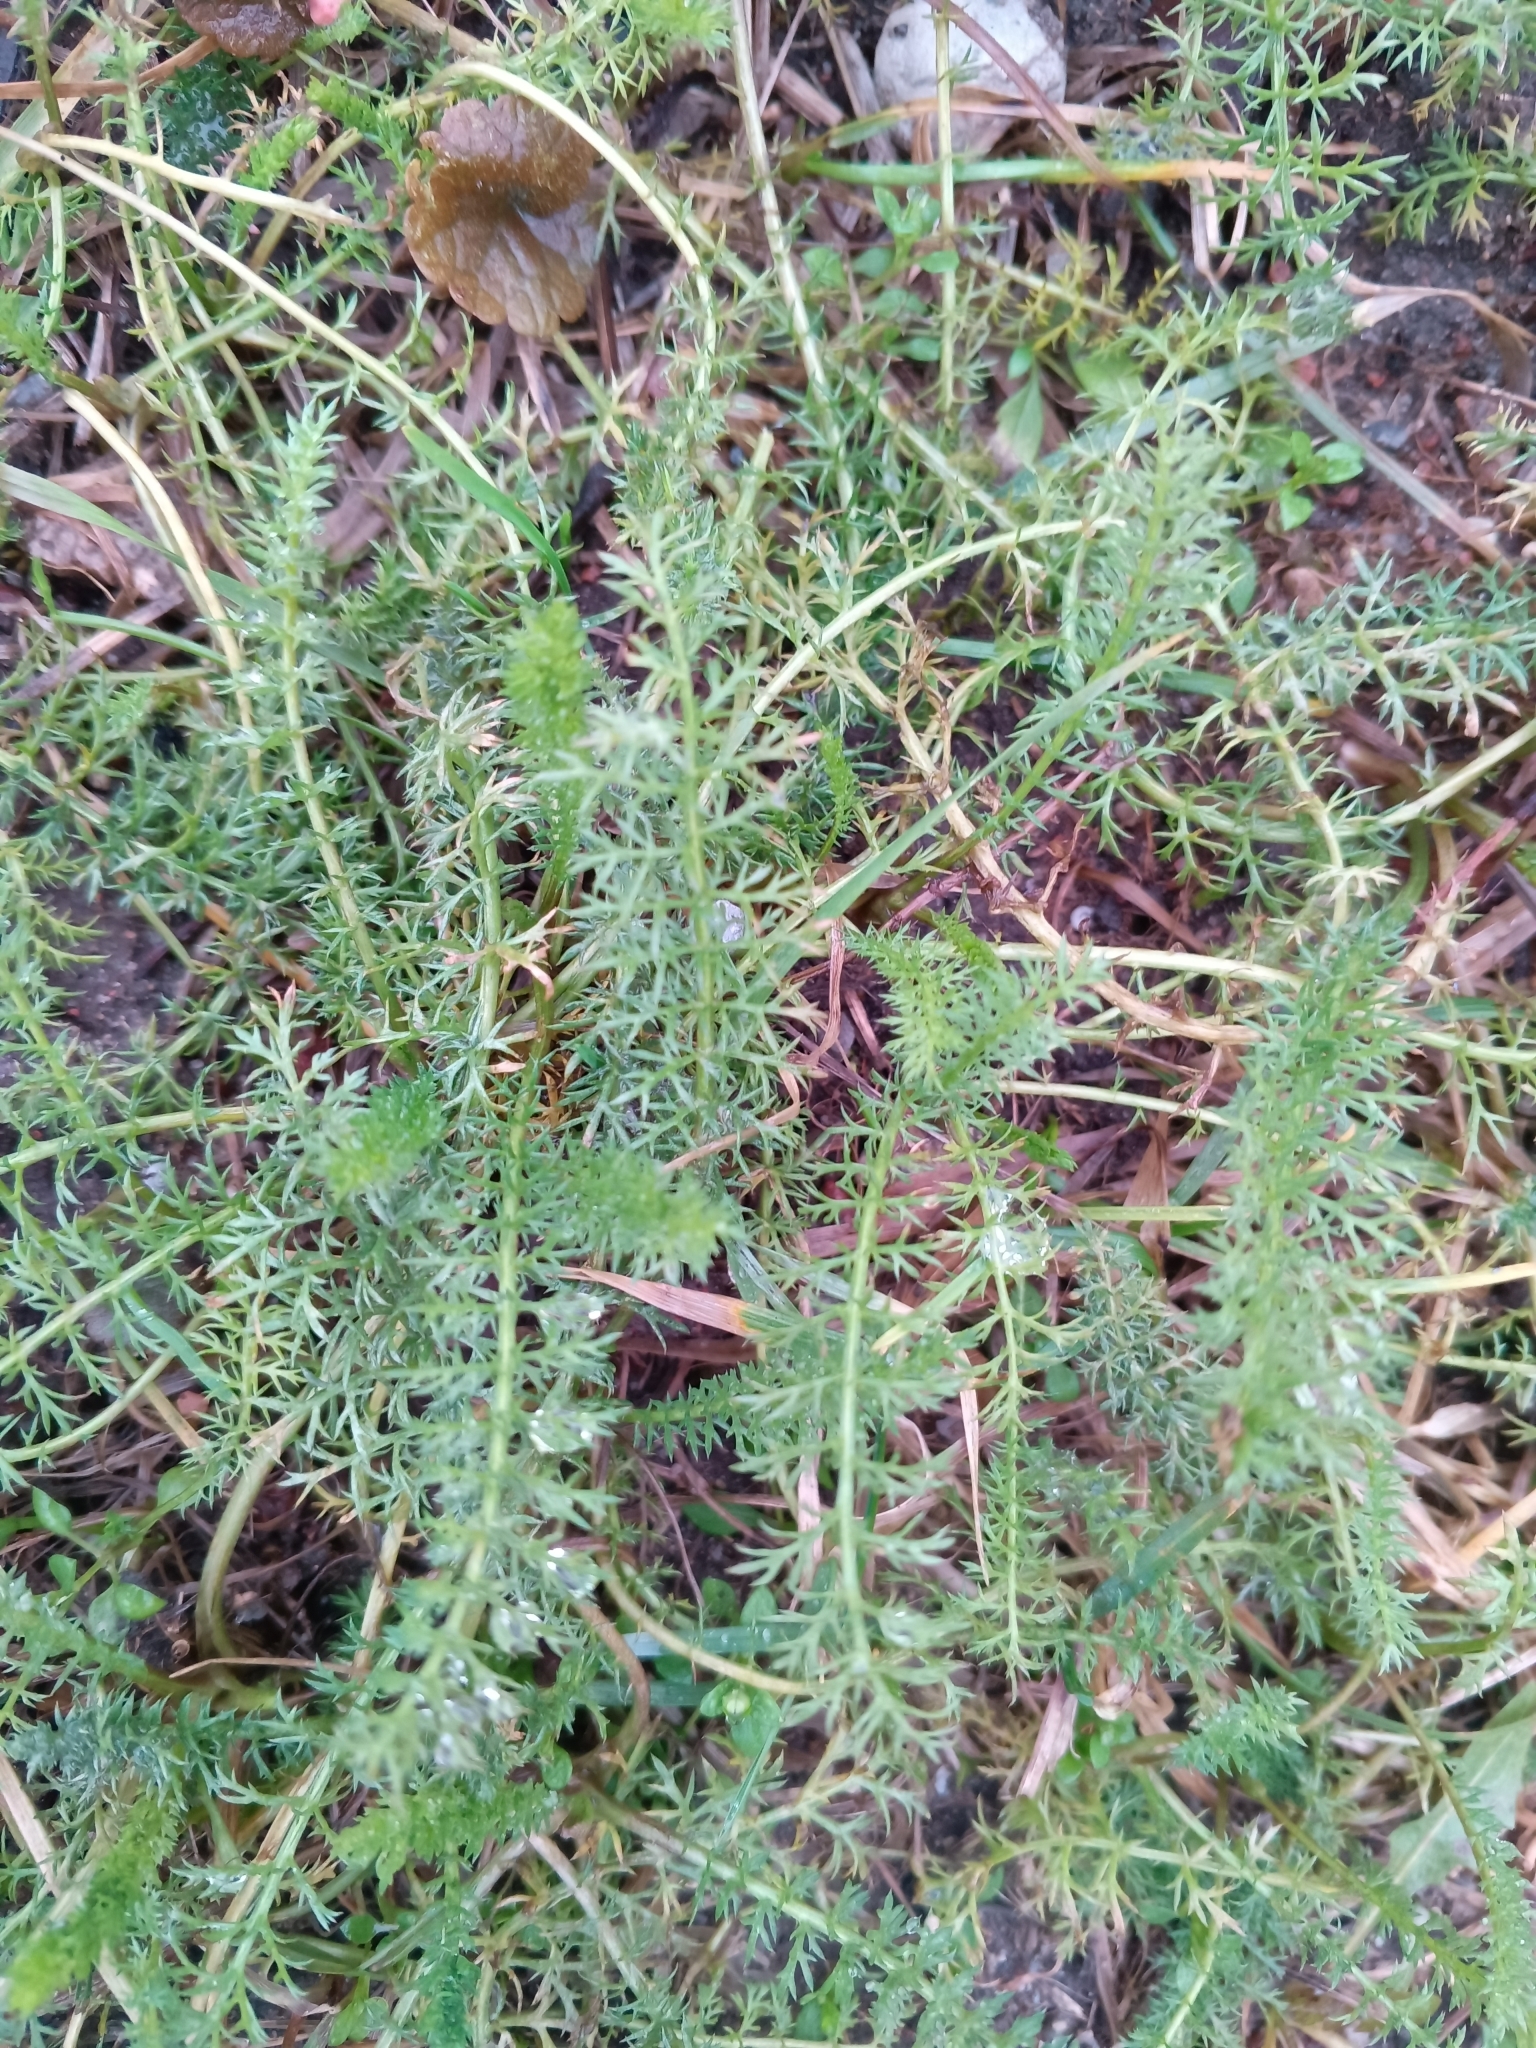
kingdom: Plantae
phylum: Tracheophyta
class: Magnoliopsida
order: Asterales
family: Asteraceae
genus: Achillea
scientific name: Achillea millefolium
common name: Yarrow
